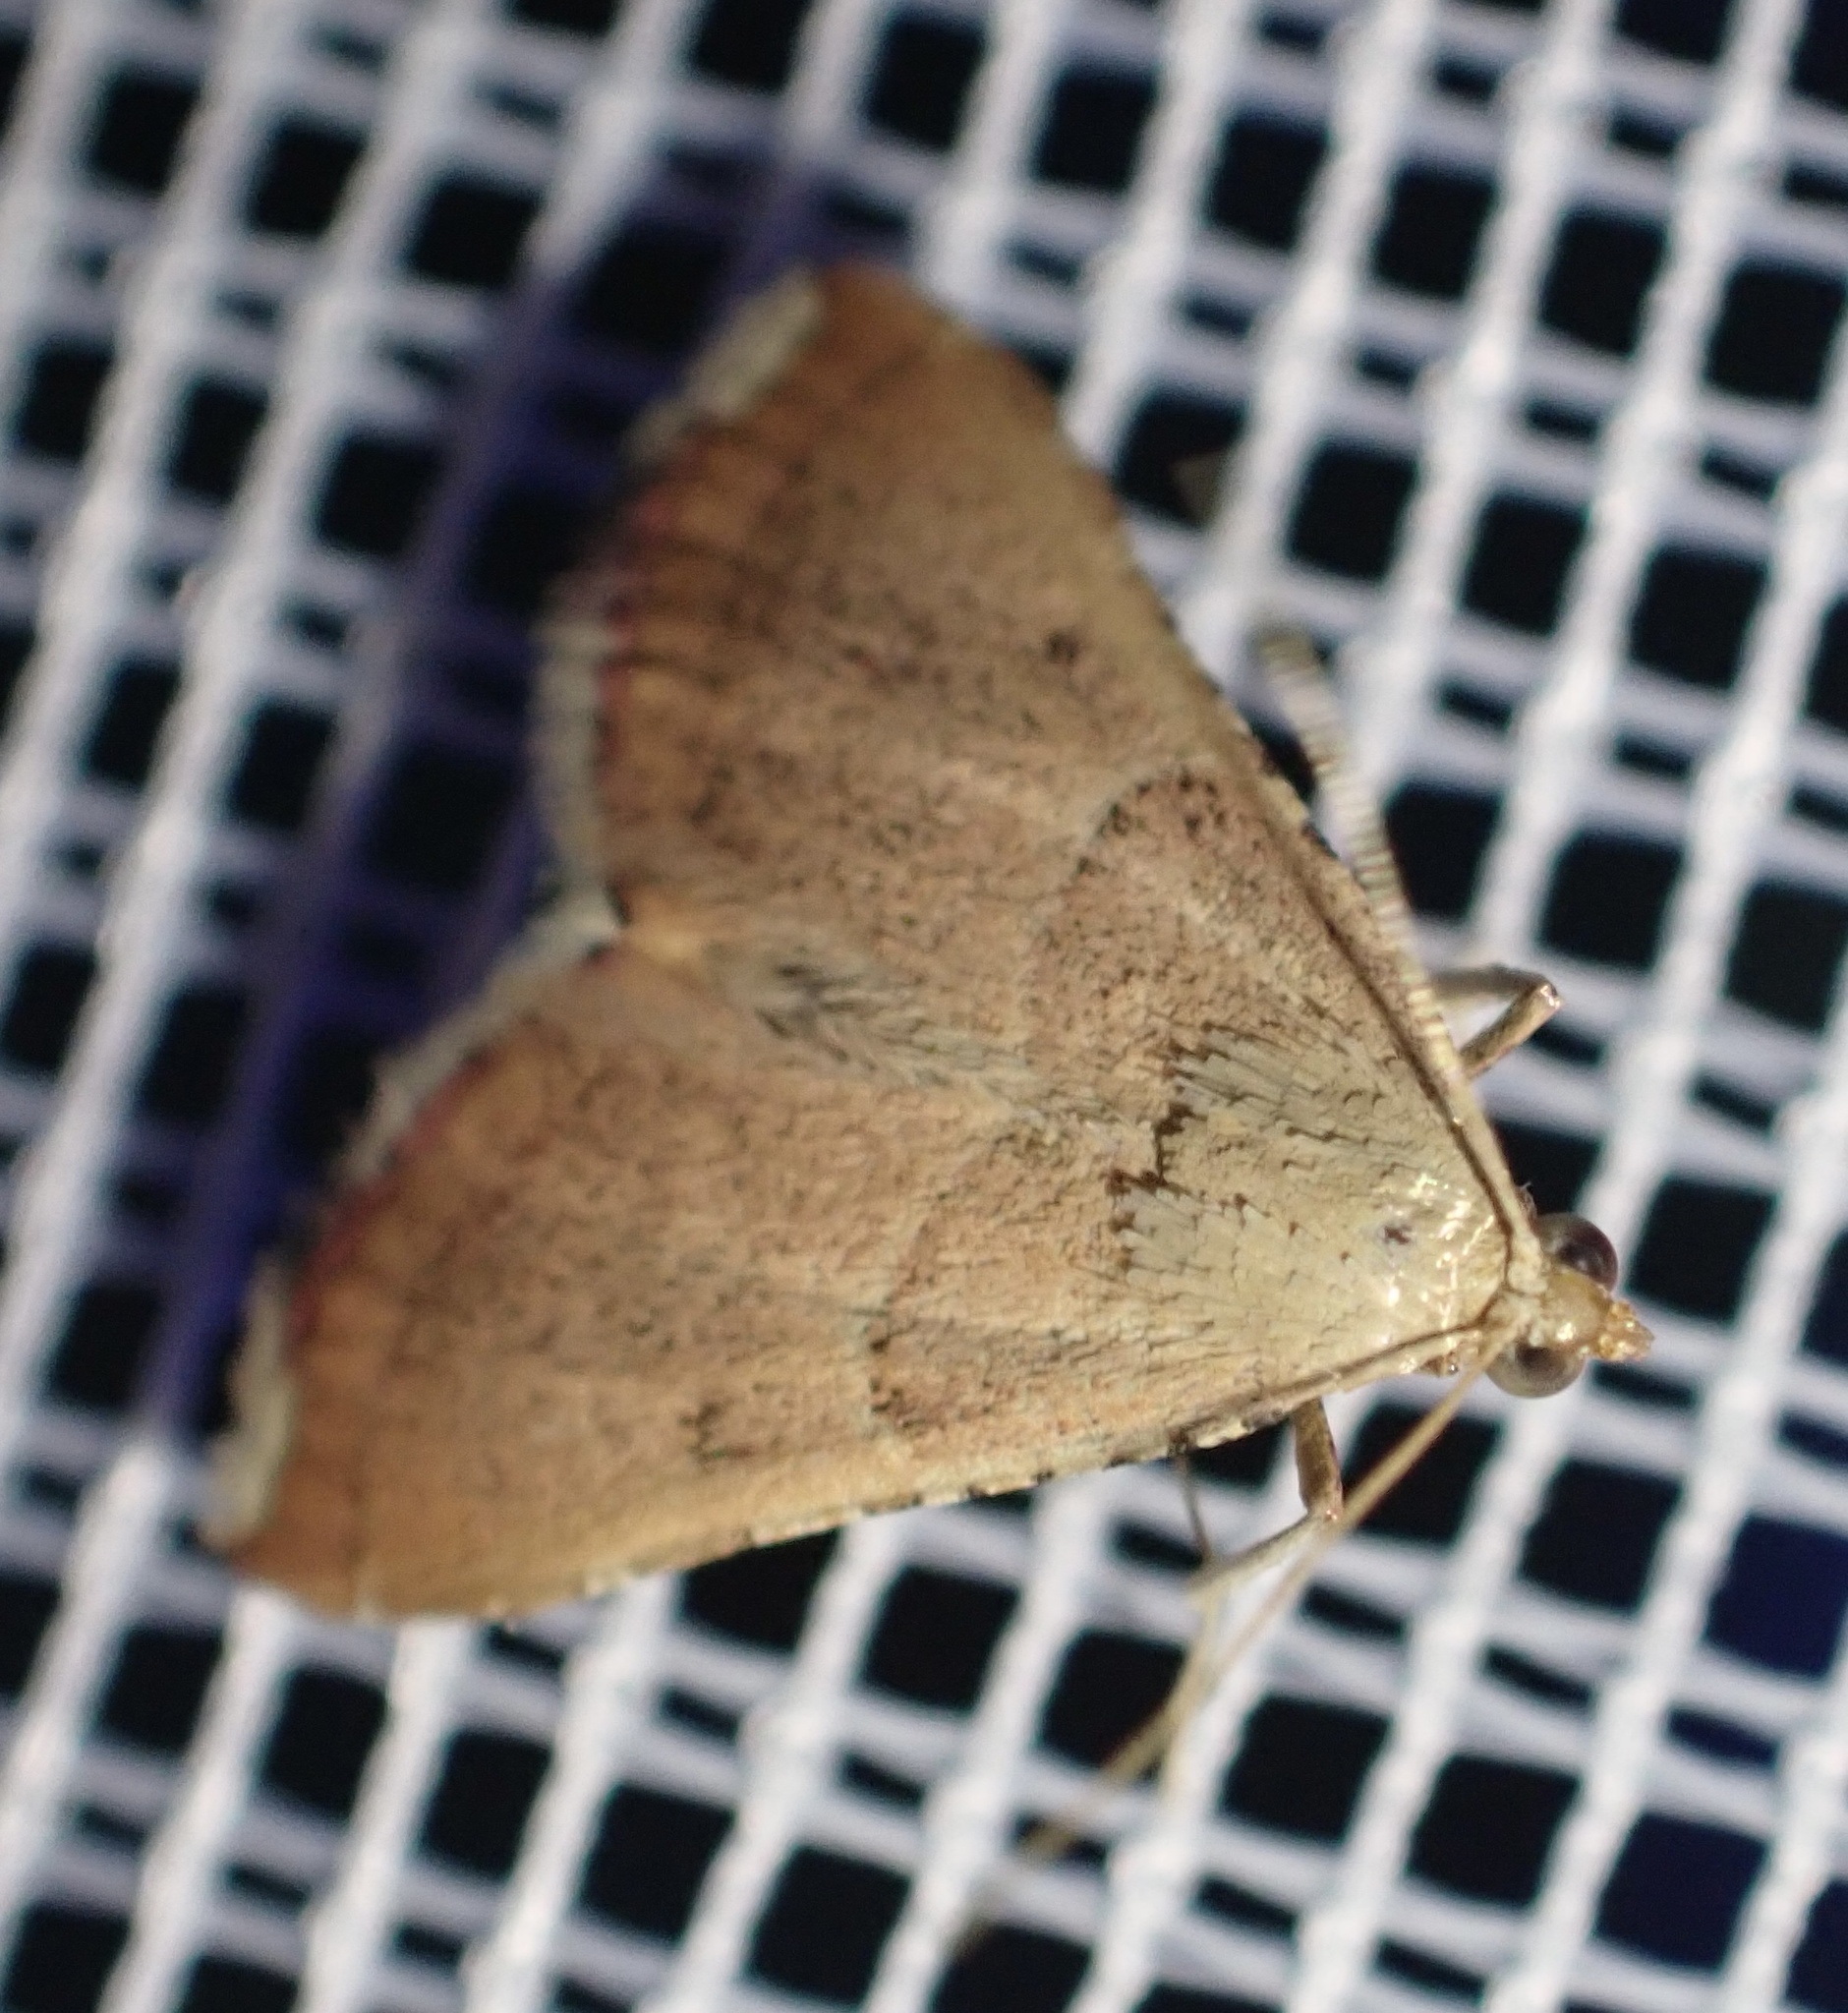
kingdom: Animalia
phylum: Arthropoda
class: Insecta
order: Lepidoptera
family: Pyralidae
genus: Endotricha
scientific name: Endotricha flammealis
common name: Rosy tabby
